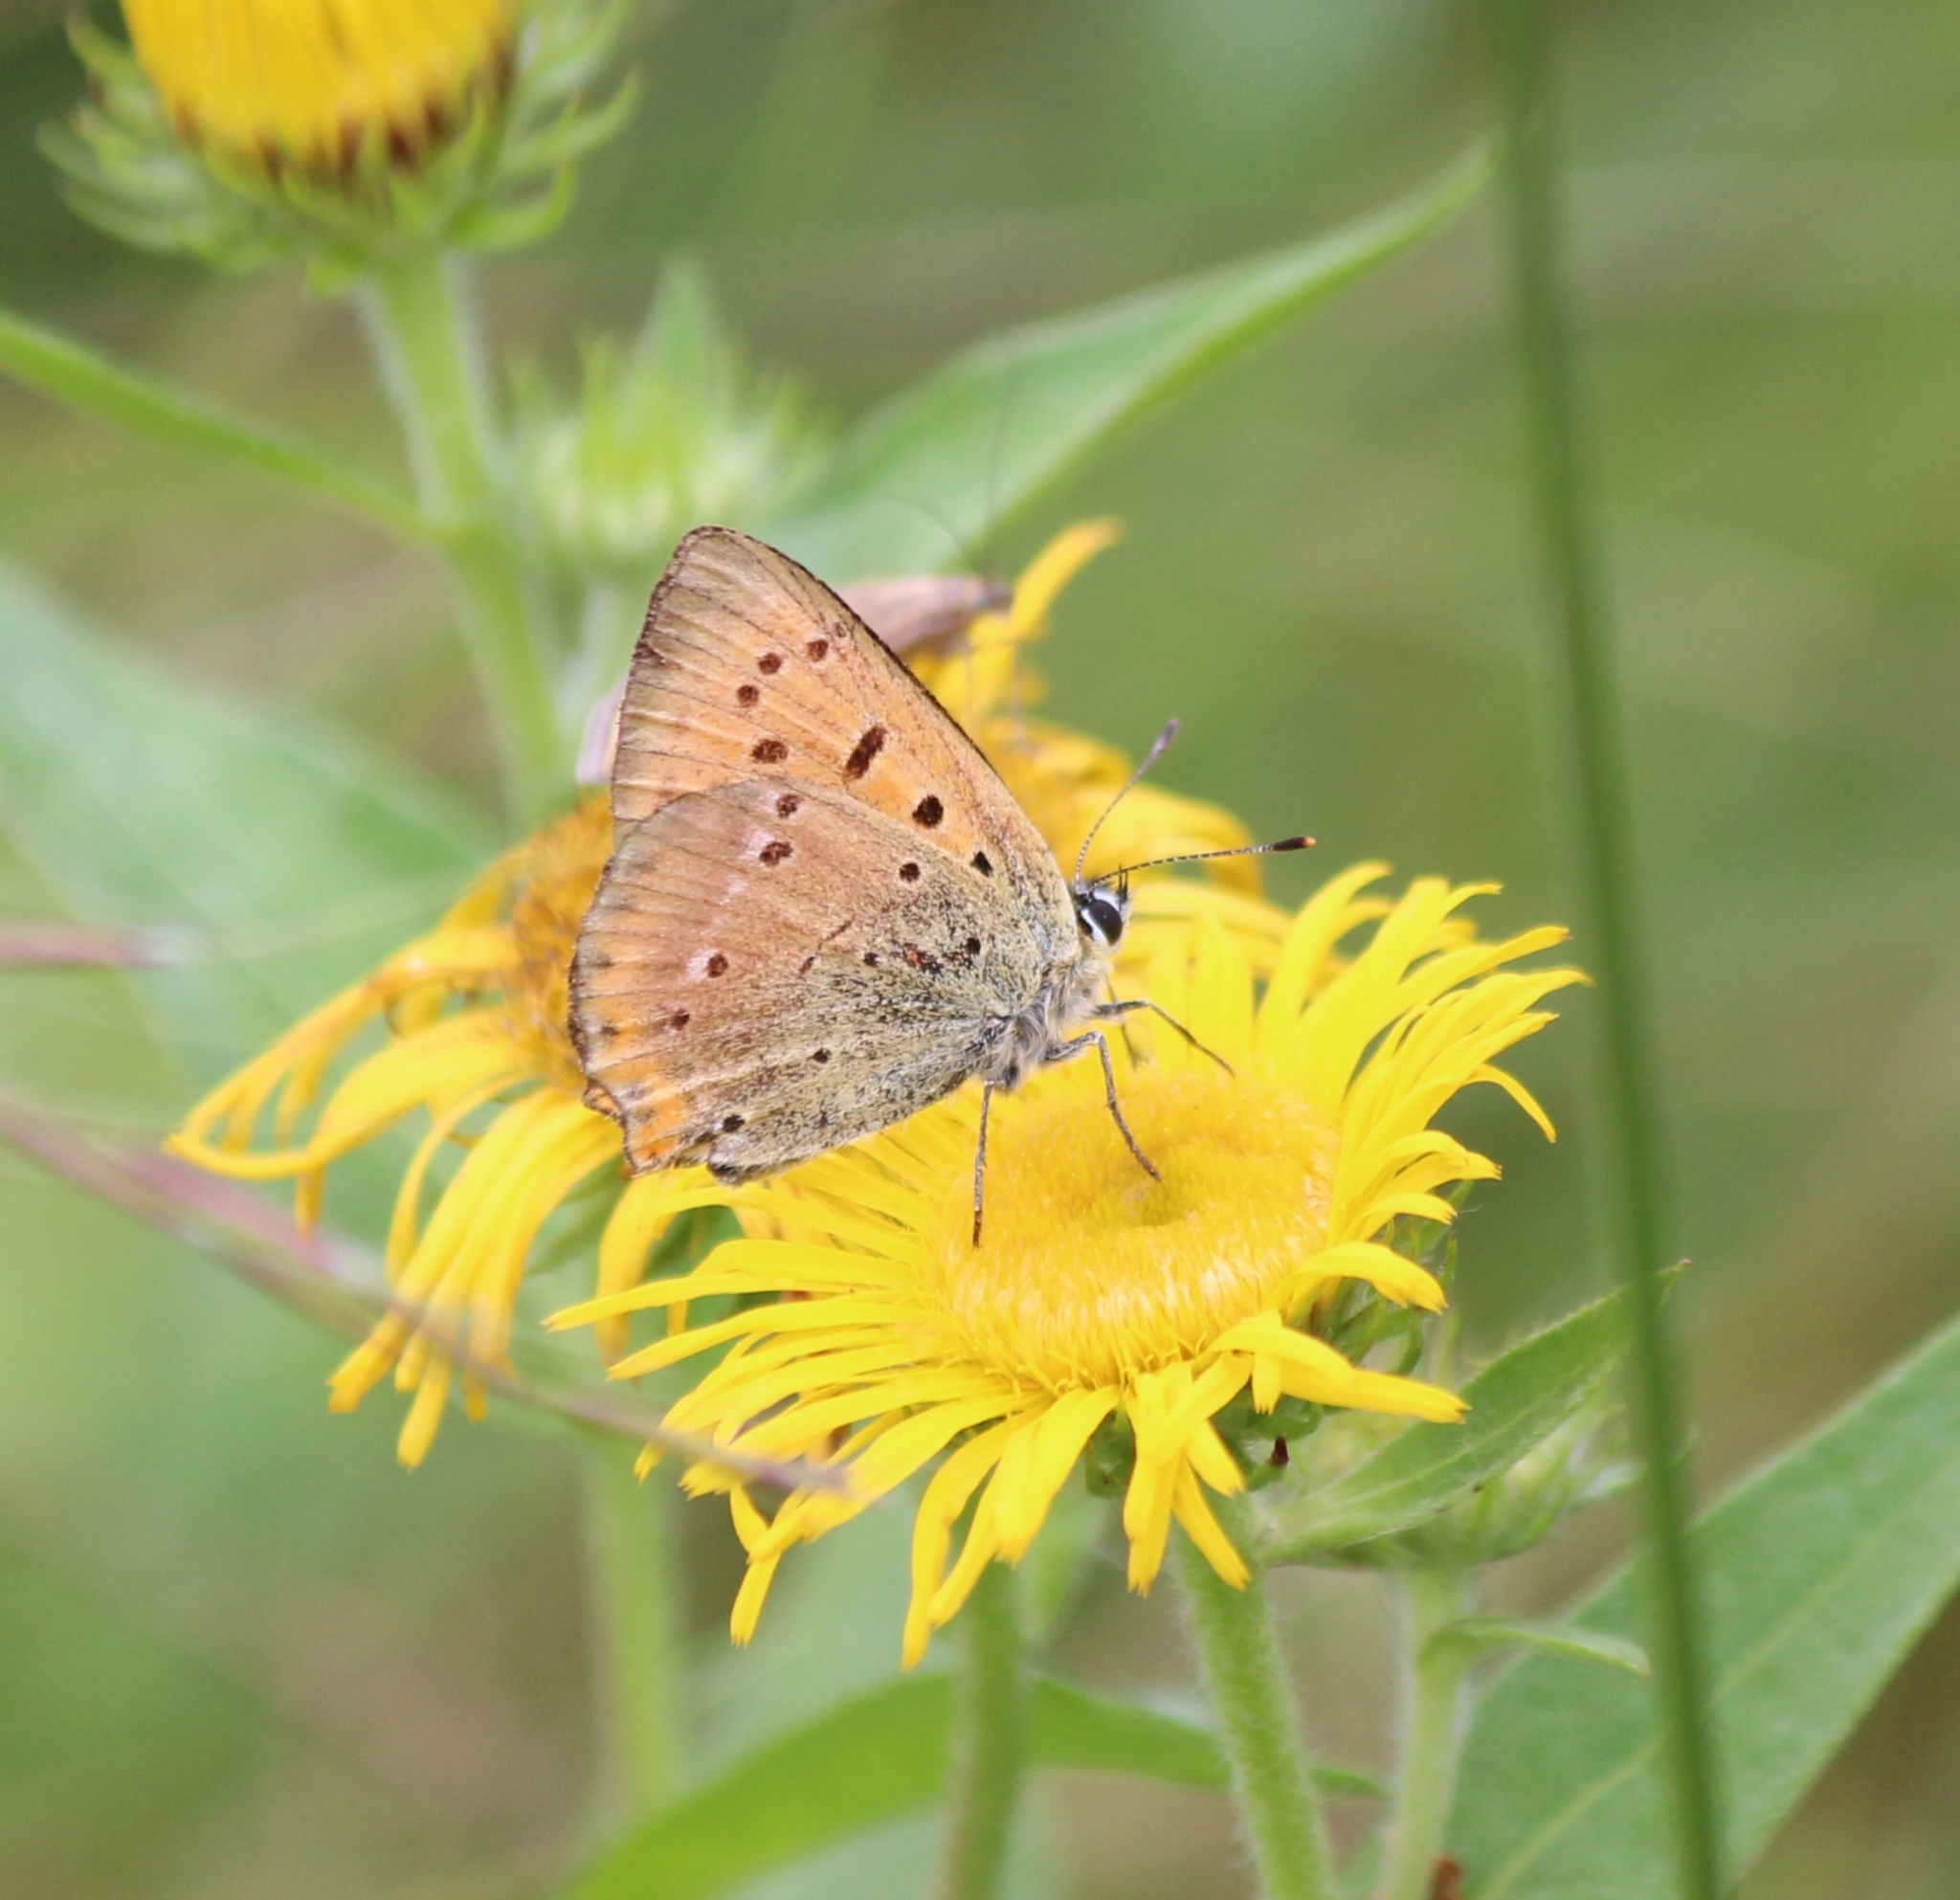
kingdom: Animalia
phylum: Arthropoda
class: Insecta
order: Lepidoptera
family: Lycaenidae
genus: Lycaena
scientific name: Lycaena virgaureae
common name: Scarce copper
